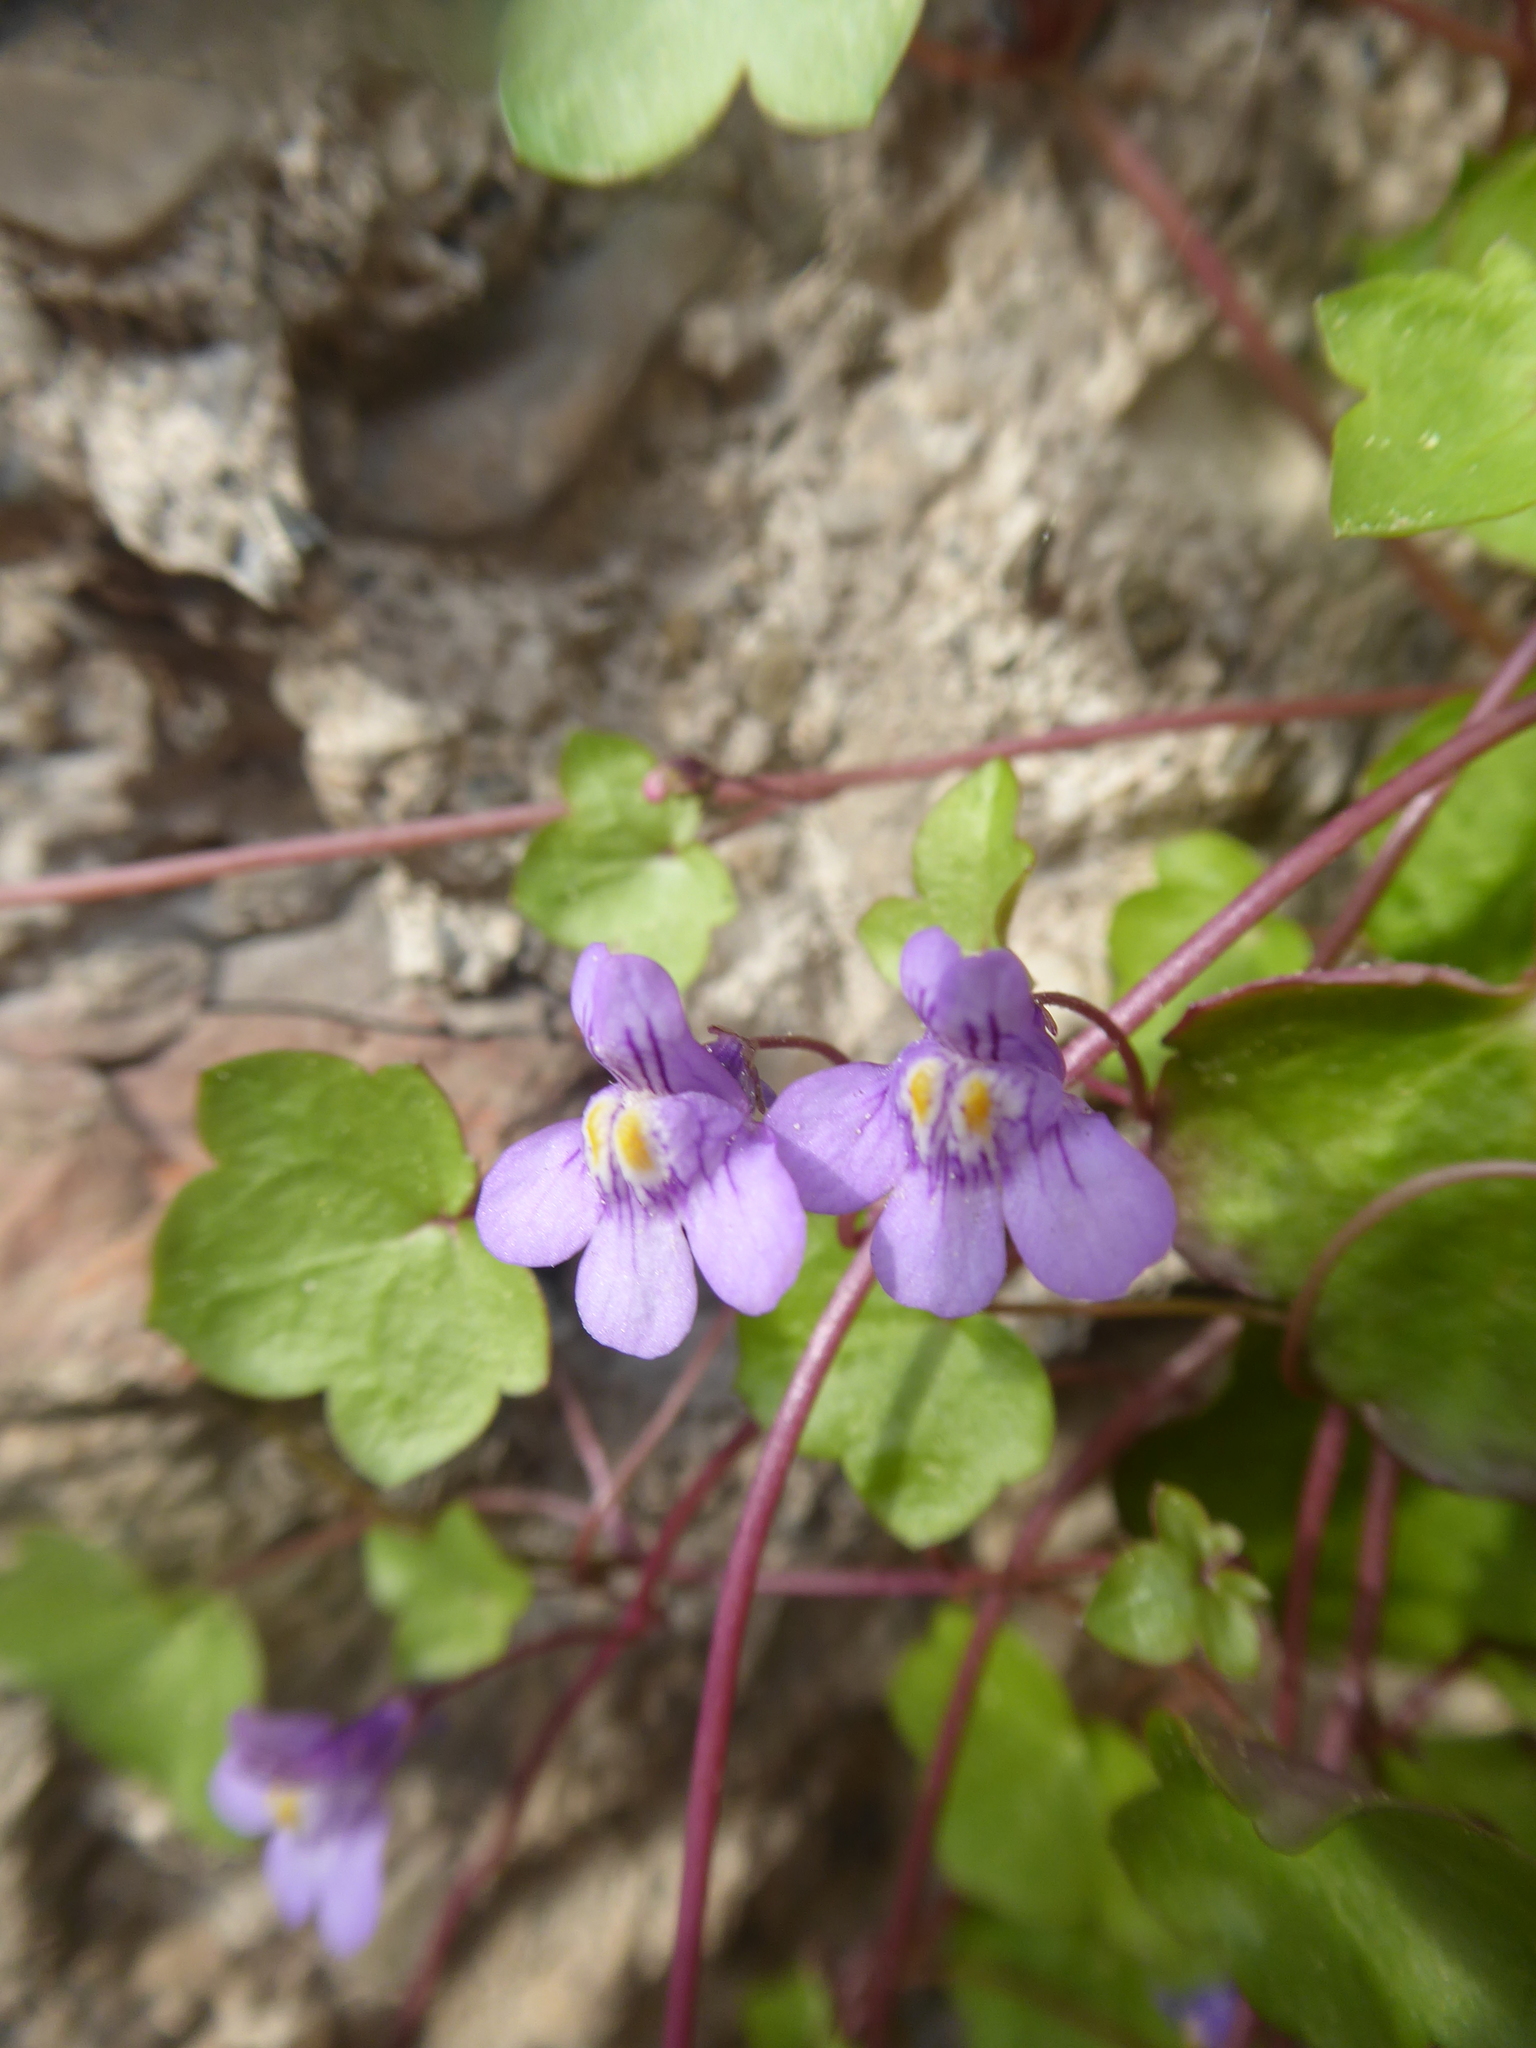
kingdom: Plantae
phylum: Tracheophyta
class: Magnoliopsida
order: Lamiales
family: Plantaginaceae
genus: Cymbalaria
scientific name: Cymbalaria muralis
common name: Ivy-leaved toadflax
